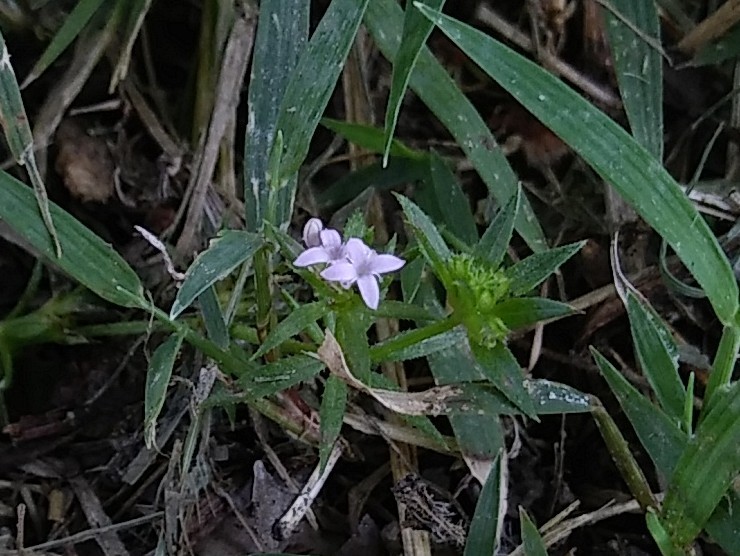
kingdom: Plantae
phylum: Tracheophyta
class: Magnoliopsida
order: Gentianales
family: Rubiaceae
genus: Sherardia
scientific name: Sherardia arvensis
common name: Field madder
